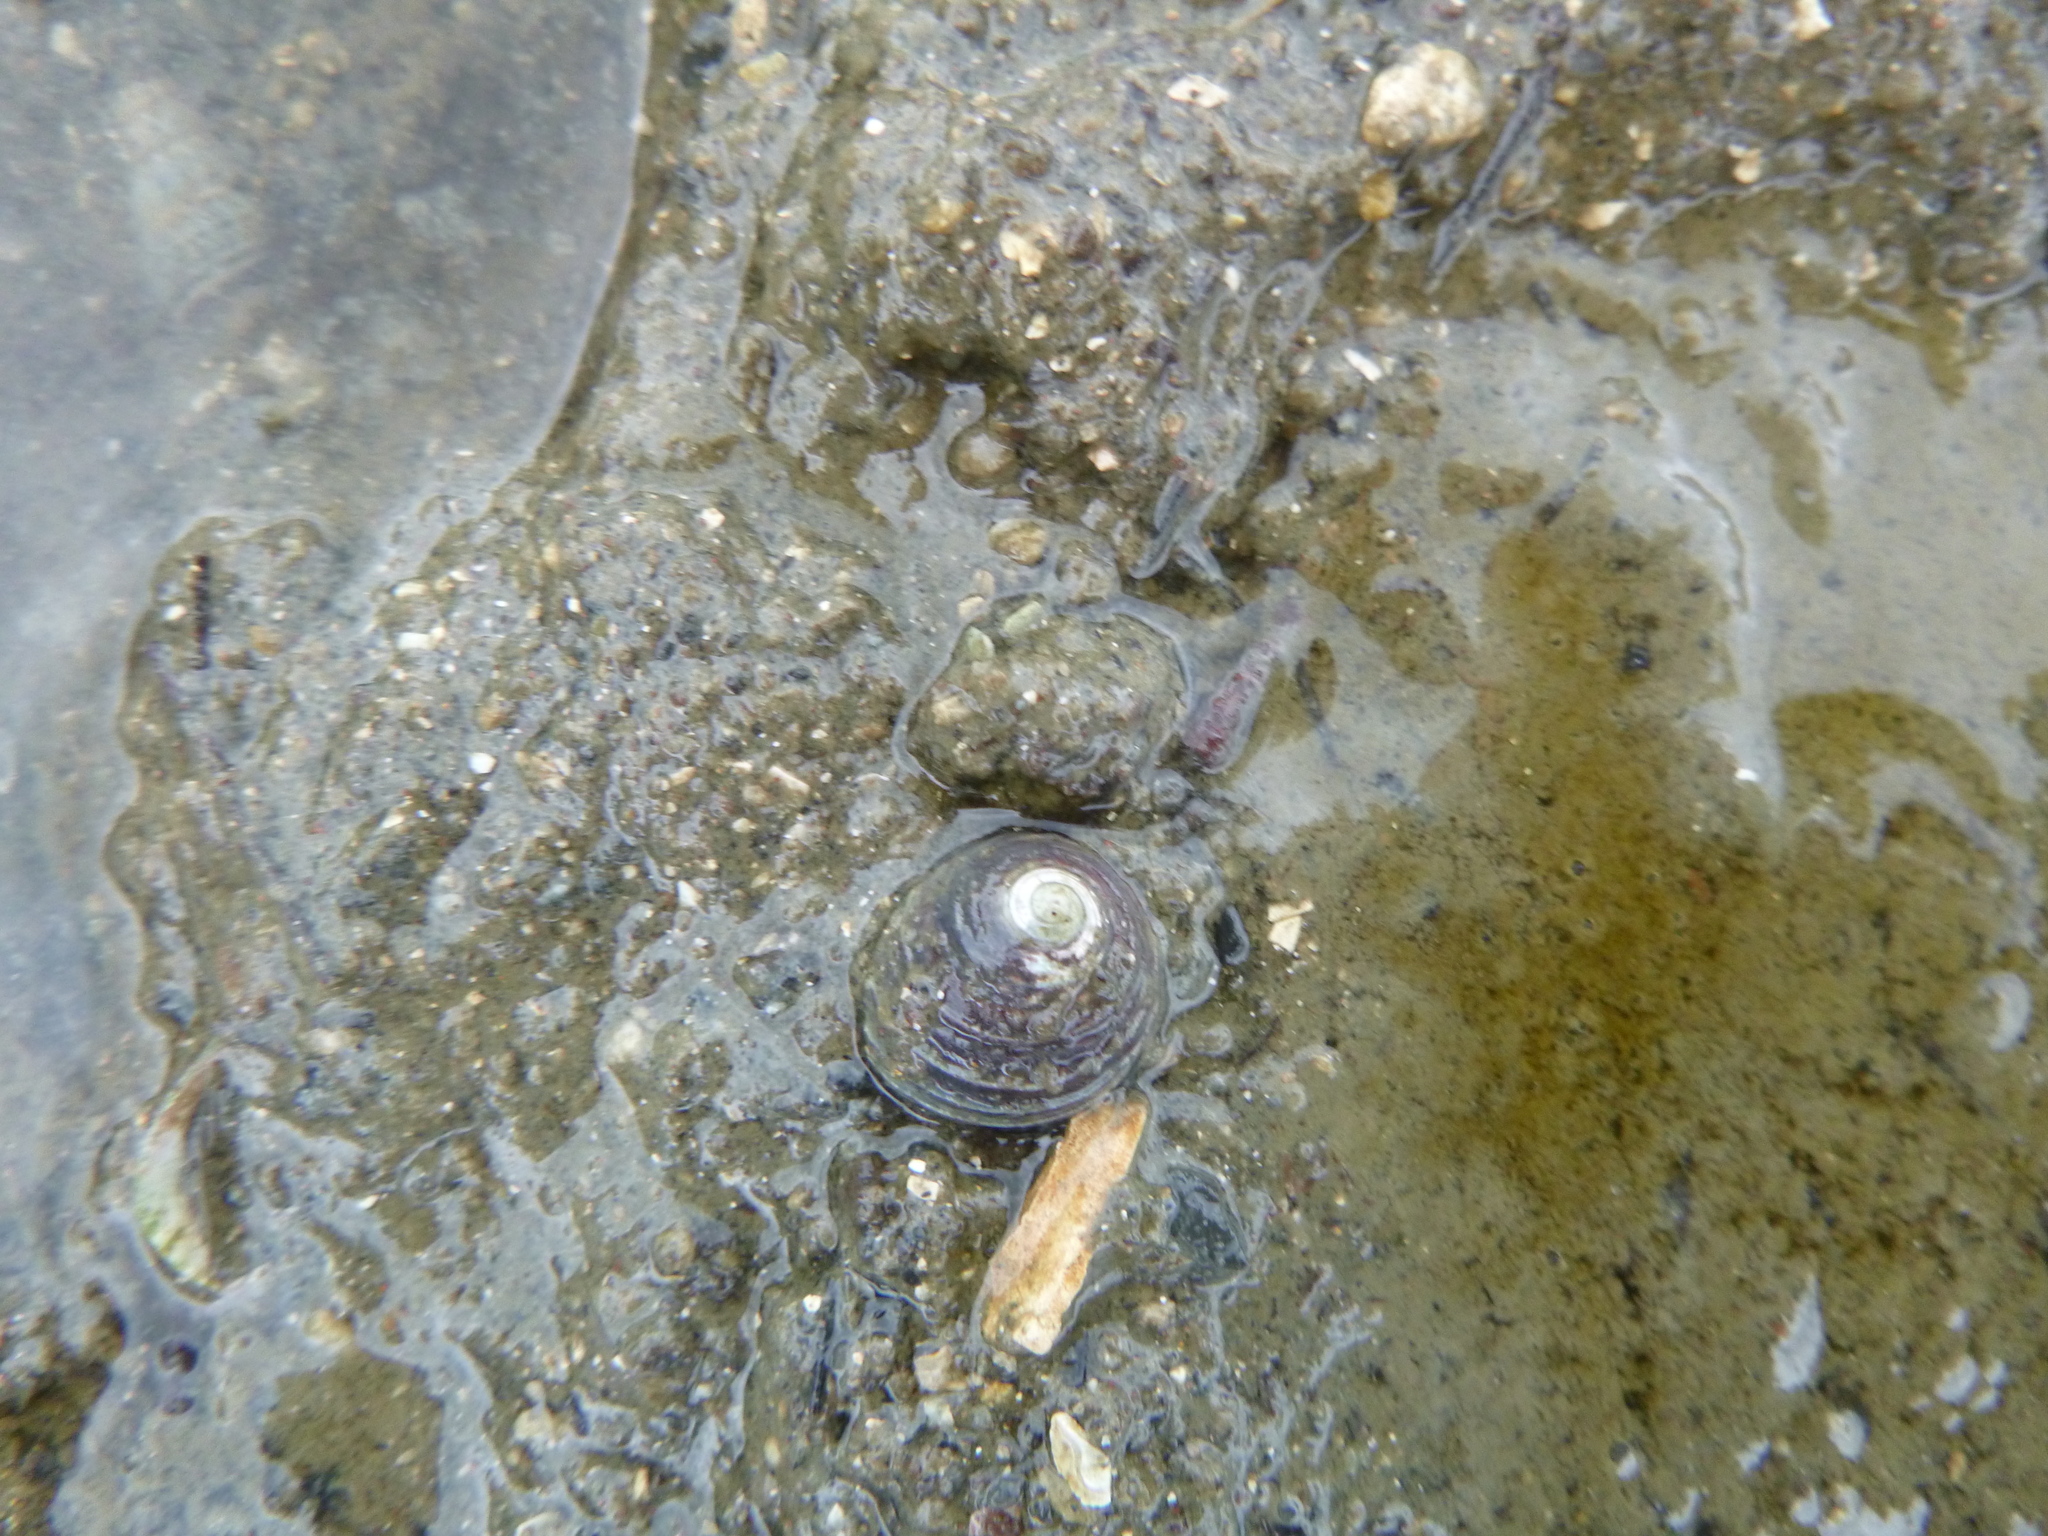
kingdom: Animalia
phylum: Mollusca
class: Gastropoda
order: Trochida
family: Trochidae
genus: Diloma
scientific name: Diloma subrostratum
